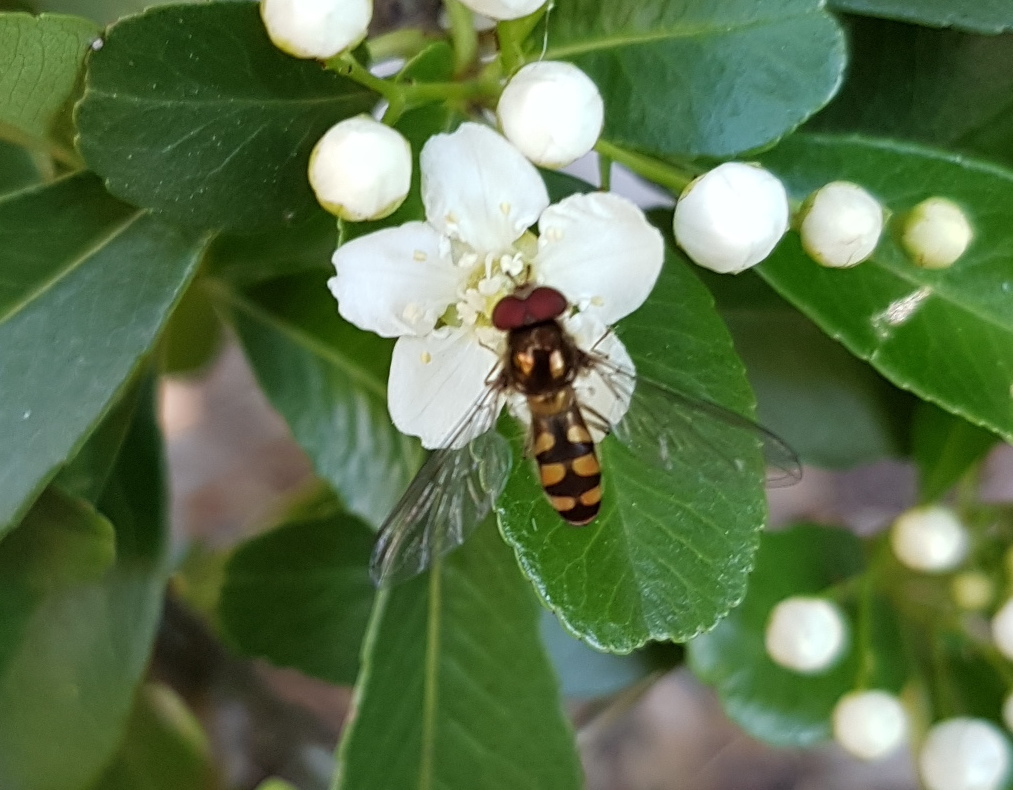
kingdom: Animalia
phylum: Arthropoda
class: Insecta
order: Diptera
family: Syrphidae
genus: Meliscaeva
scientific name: Meliscaeva auricollis
